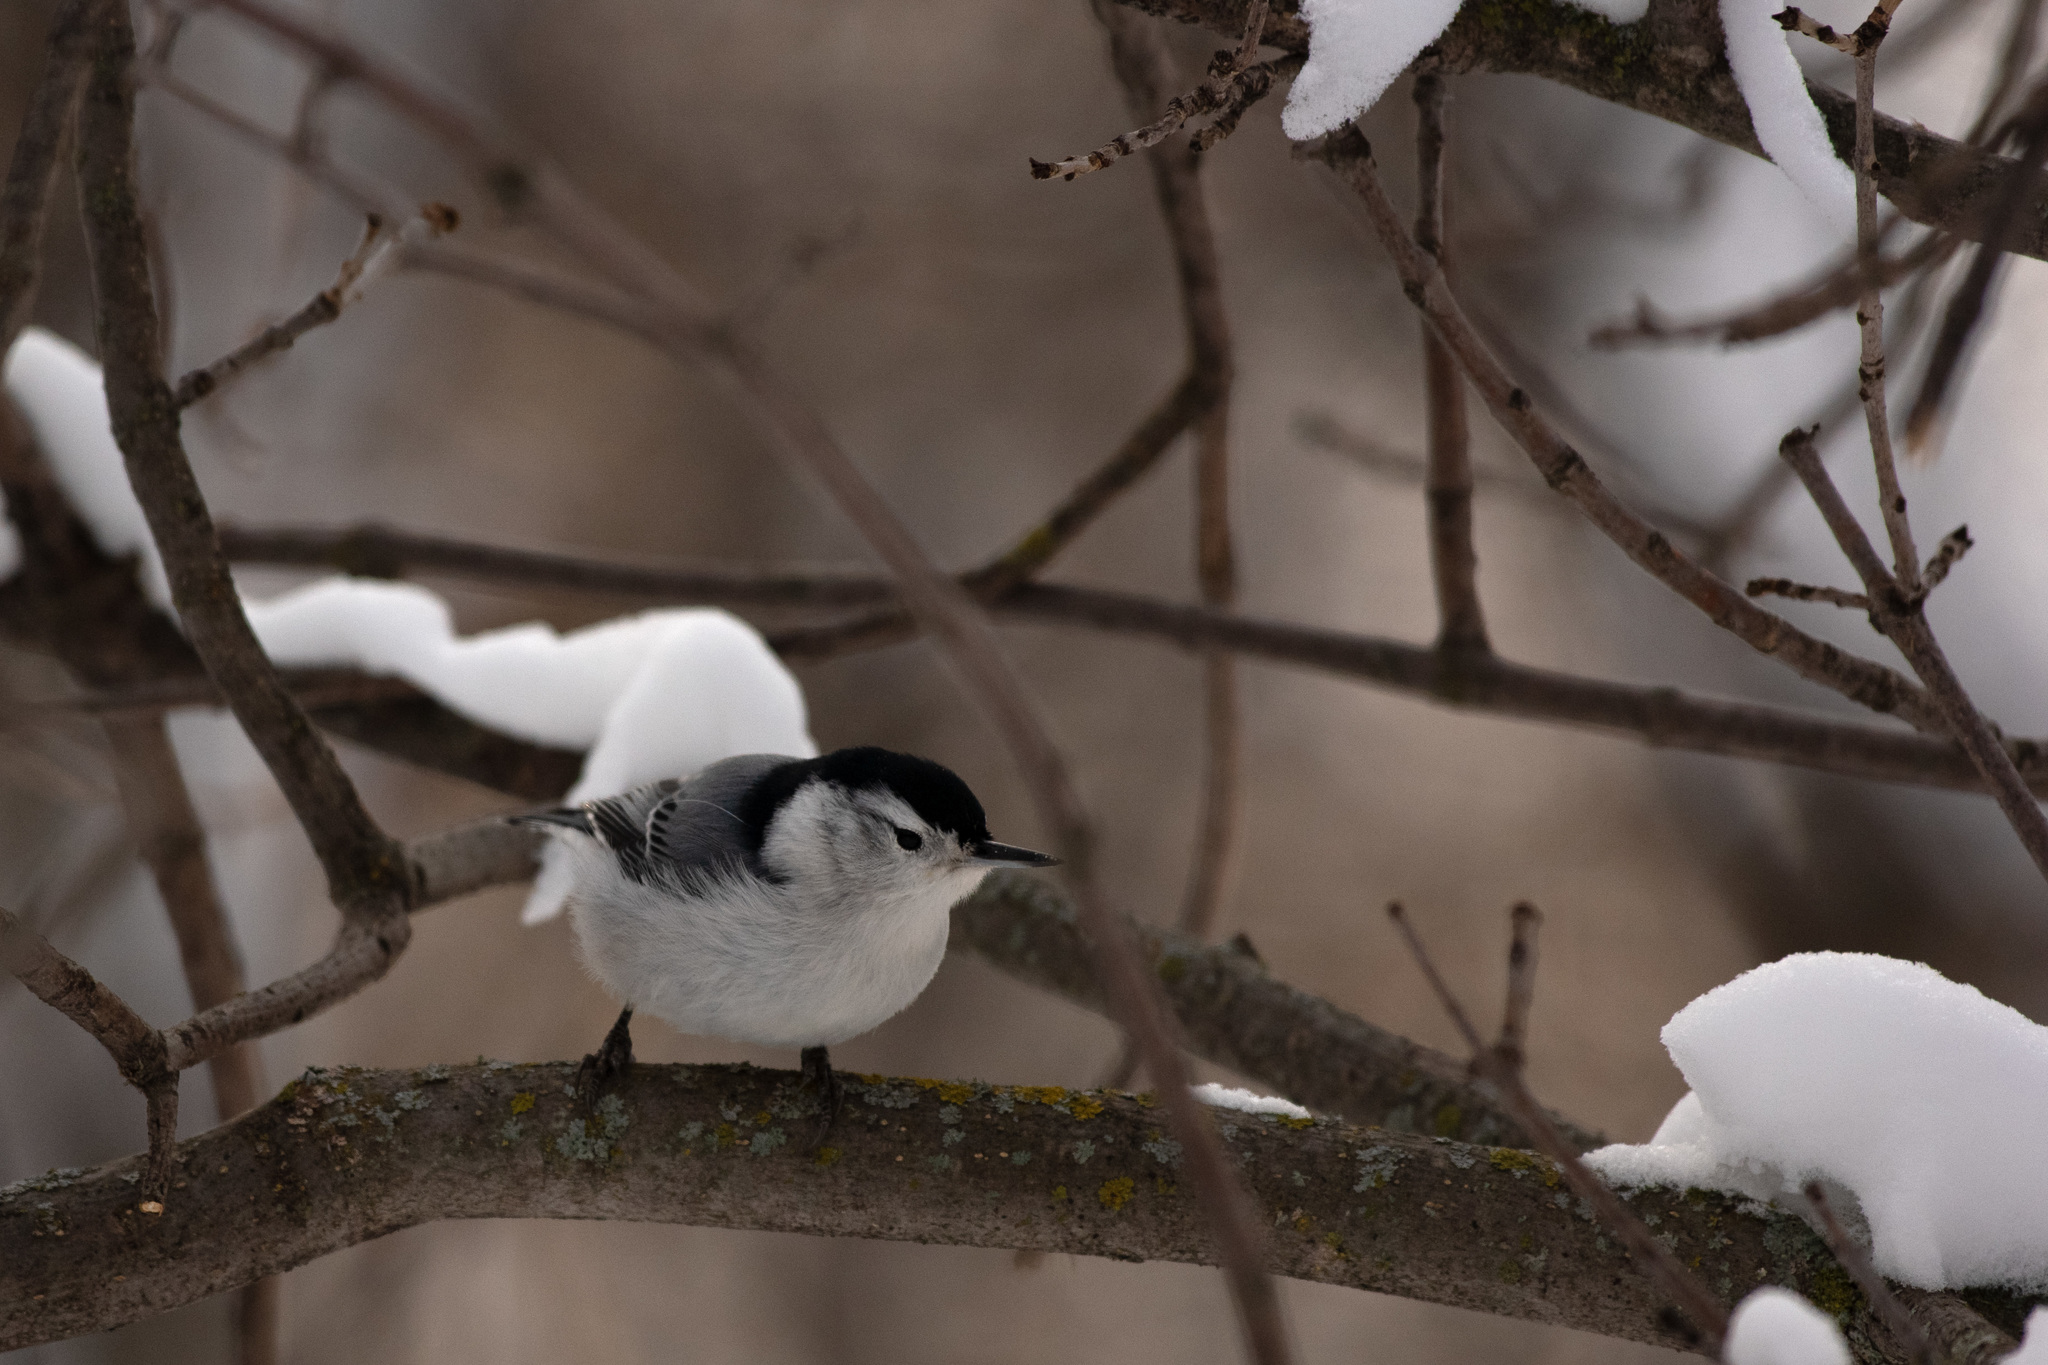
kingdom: Animalia
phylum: Chordata
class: Aves
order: Passeriformes
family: Sittidae
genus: Sitta
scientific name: Sitta carolinensis
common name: White-breasted nuthatch
